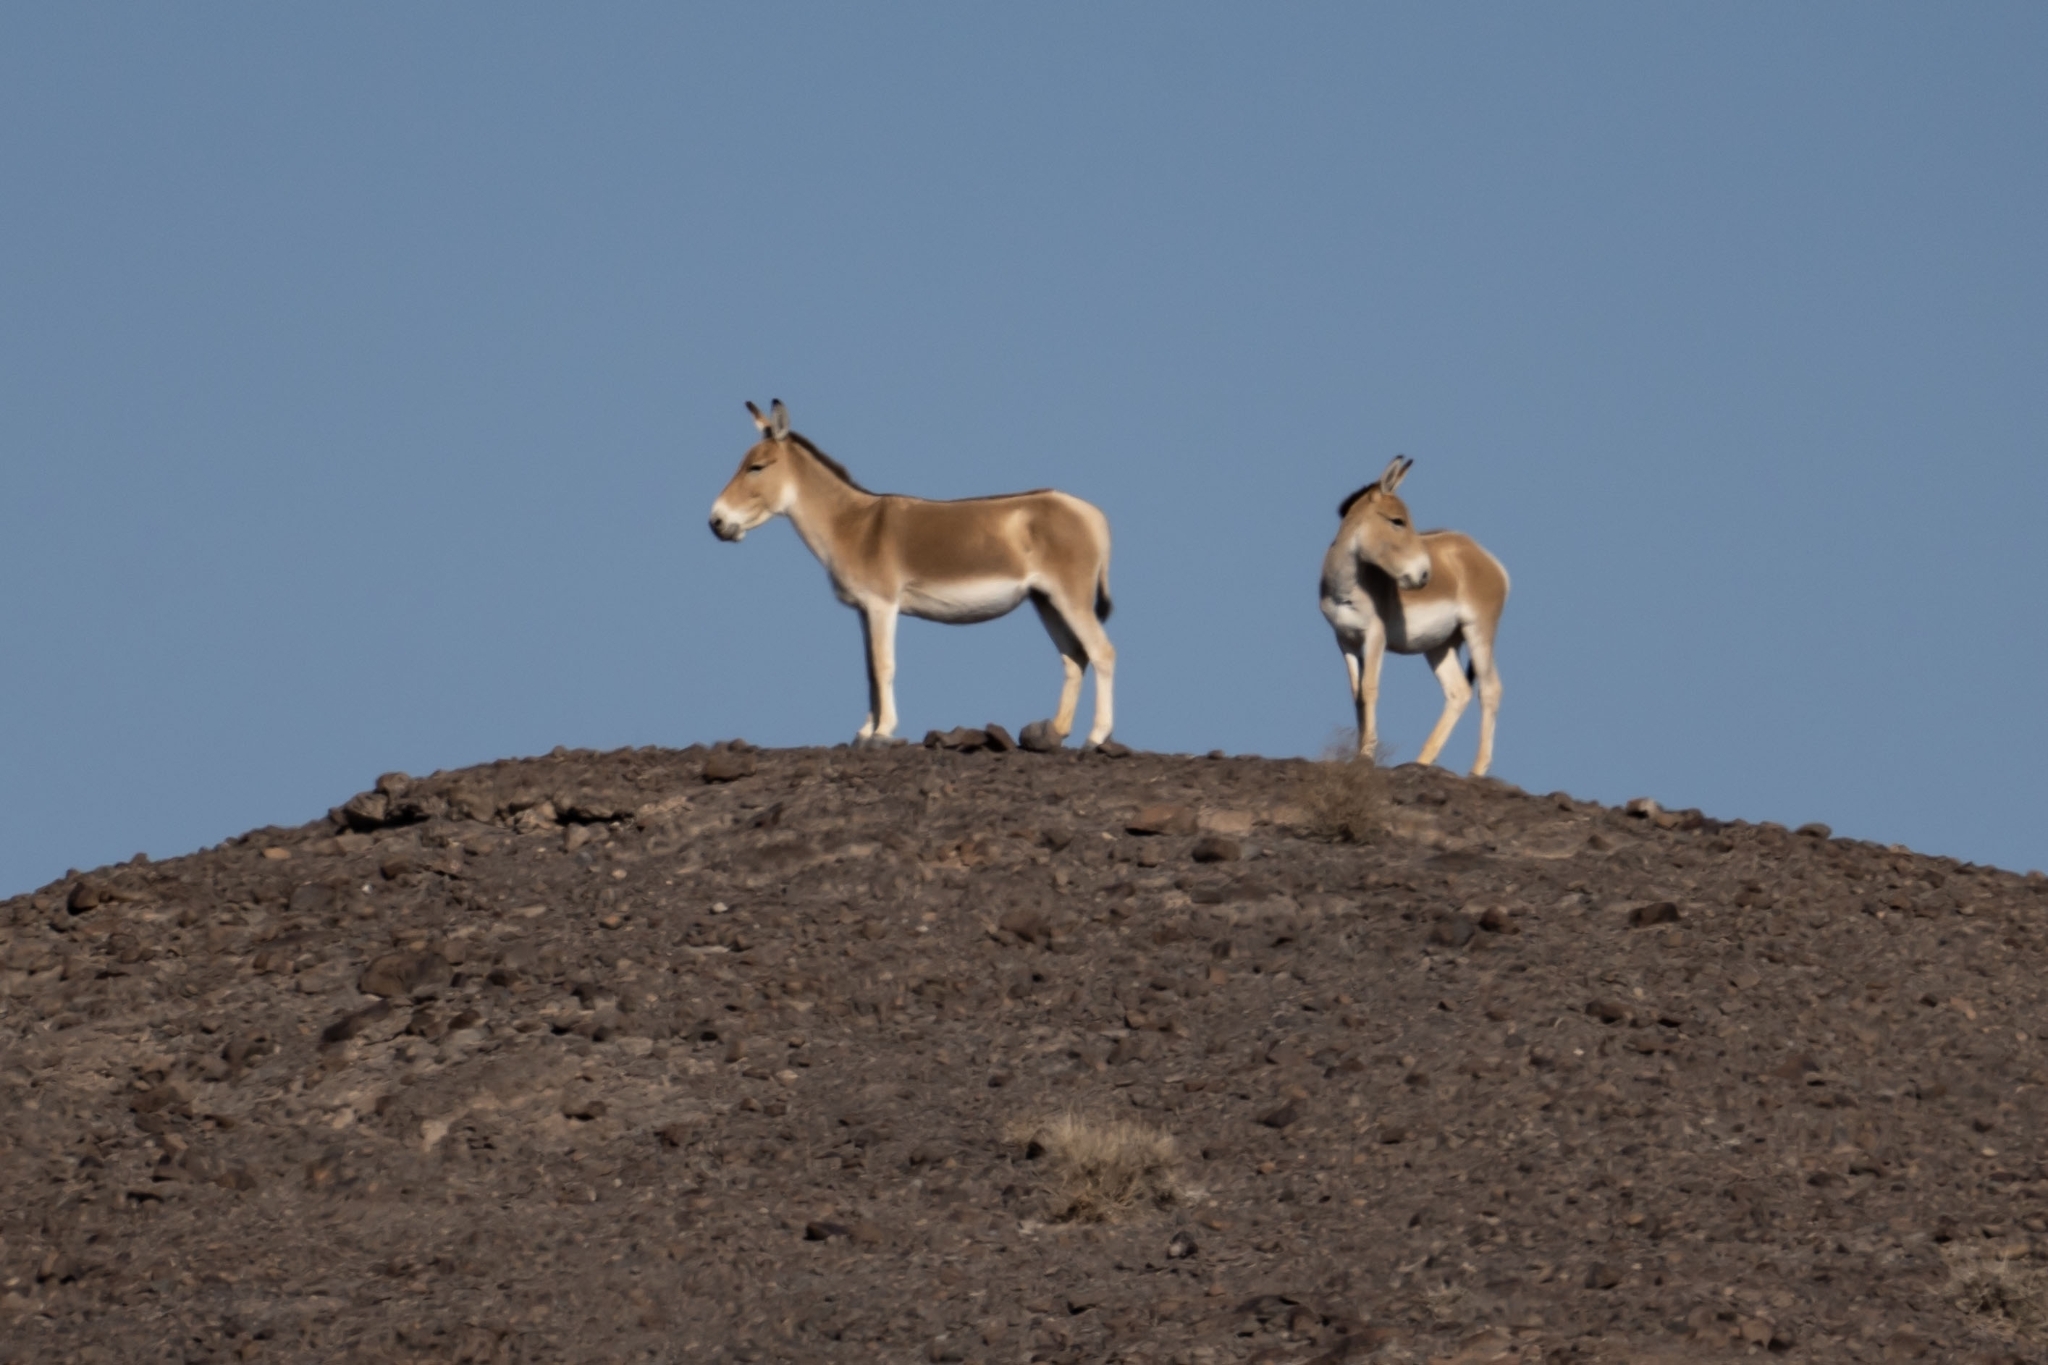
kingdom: Animalia
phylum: Chordata
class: Mammalia
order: Perissodactyla
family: Equidae
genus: Equus
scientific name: Equus hemionus
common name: Onager
